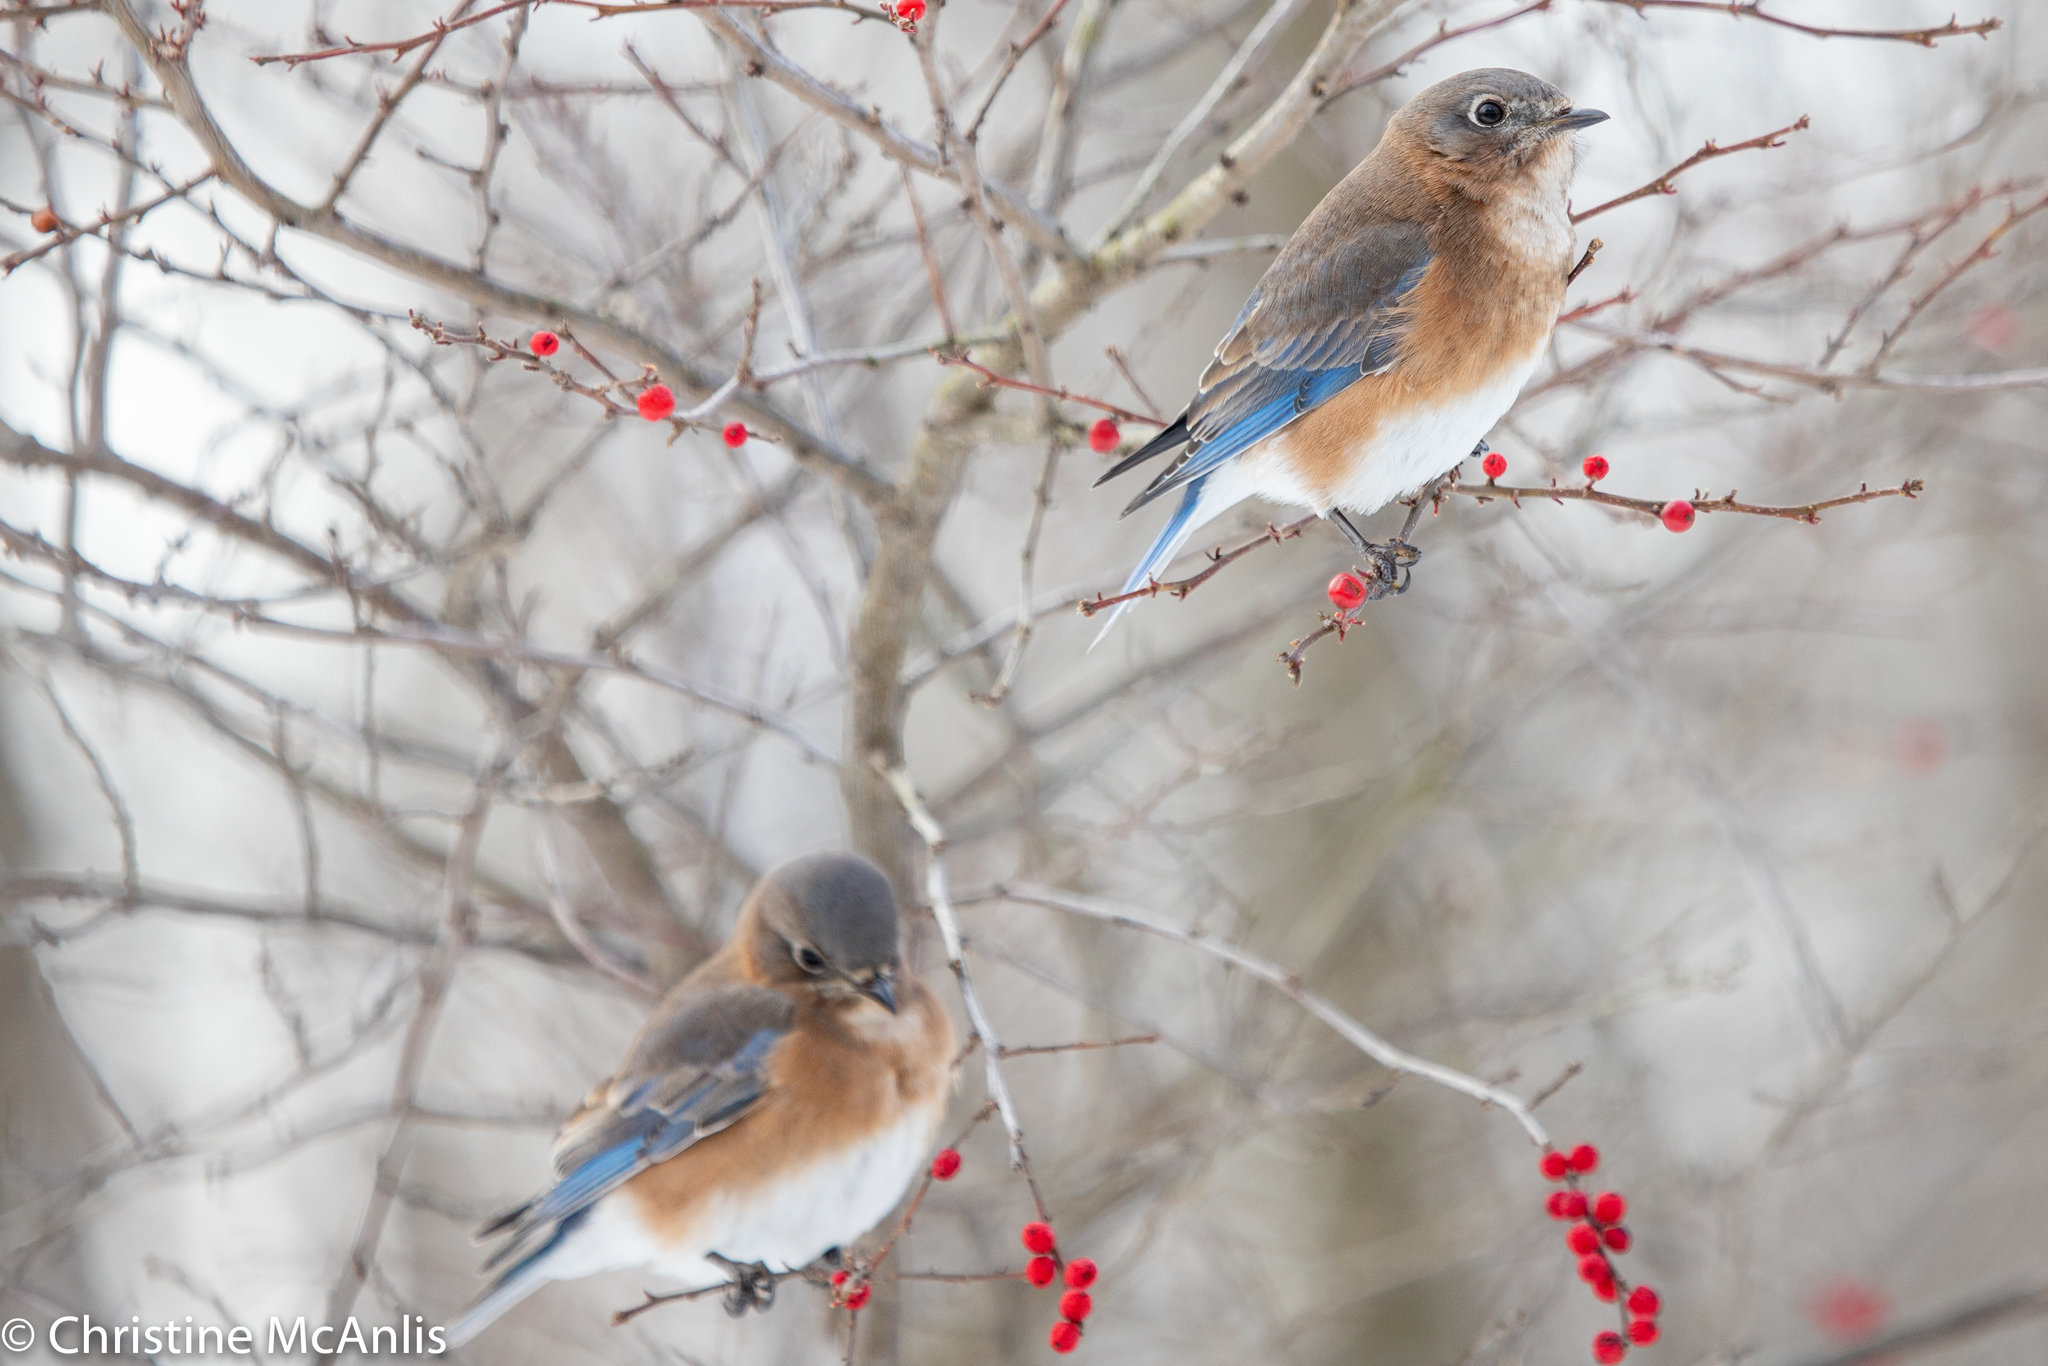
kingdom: Animalia
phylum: Chordata
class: Aves
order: Passeriformes
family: Turdidae
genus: Sialia
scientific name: Sialia sialis
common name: Eastern bluebird
